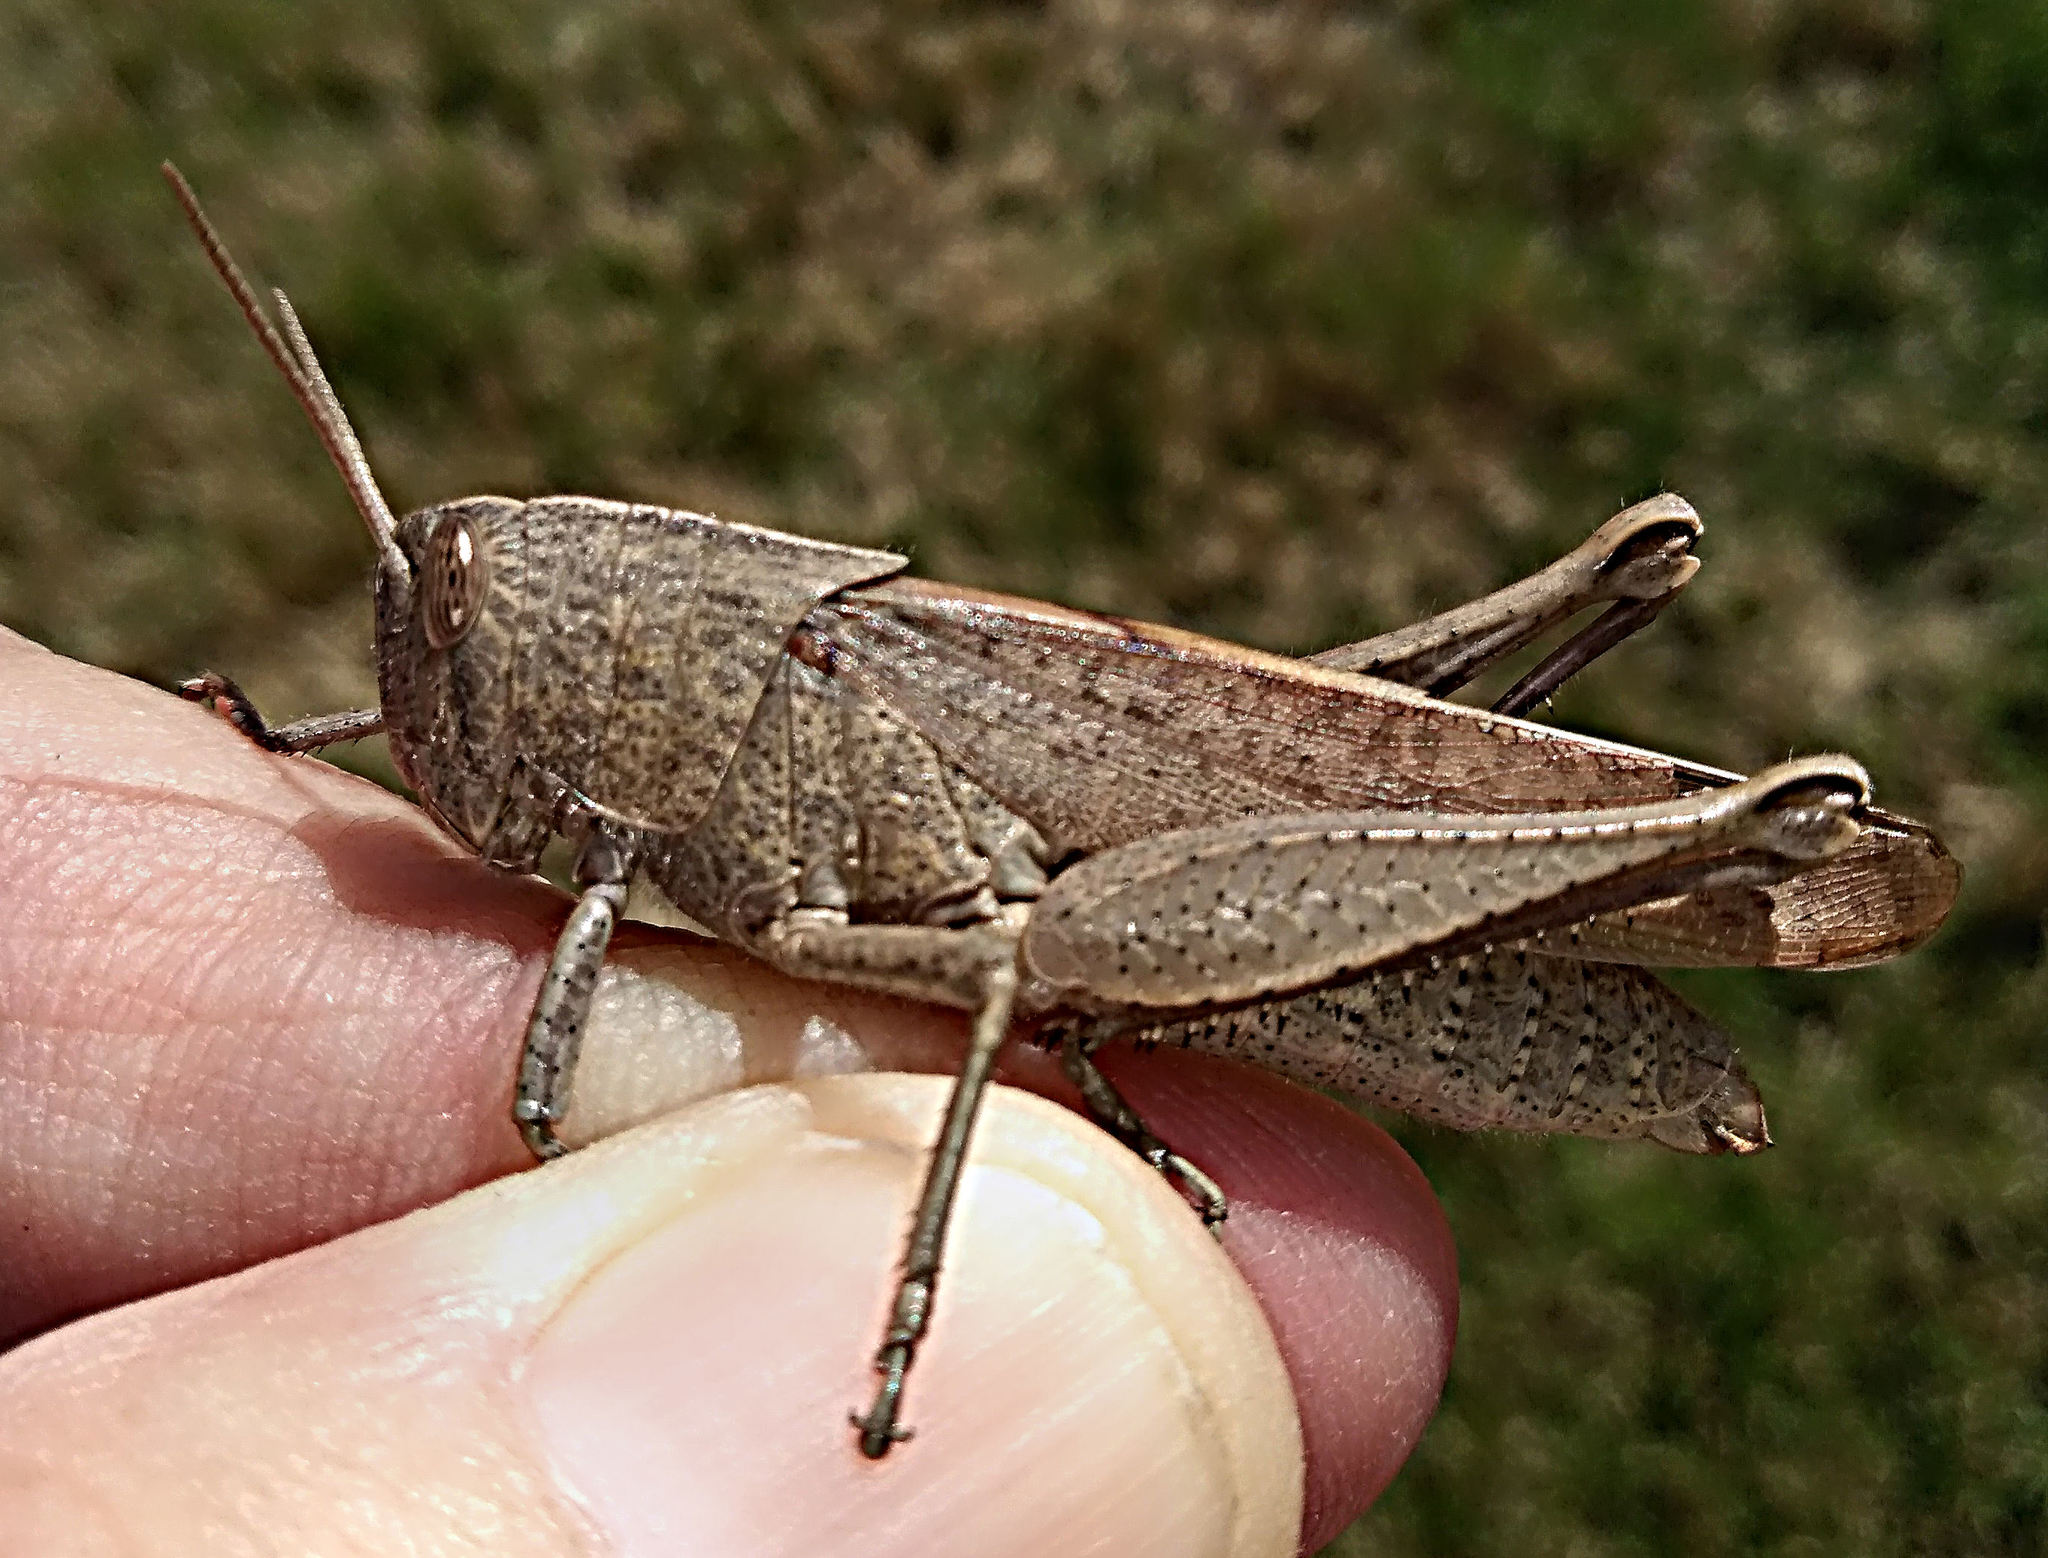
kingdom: Animalia
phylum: Arthropoda
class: Insecta
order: Orthoptera
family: Acrididae
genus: Schistocerca
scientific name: Schistocerca damnifica
